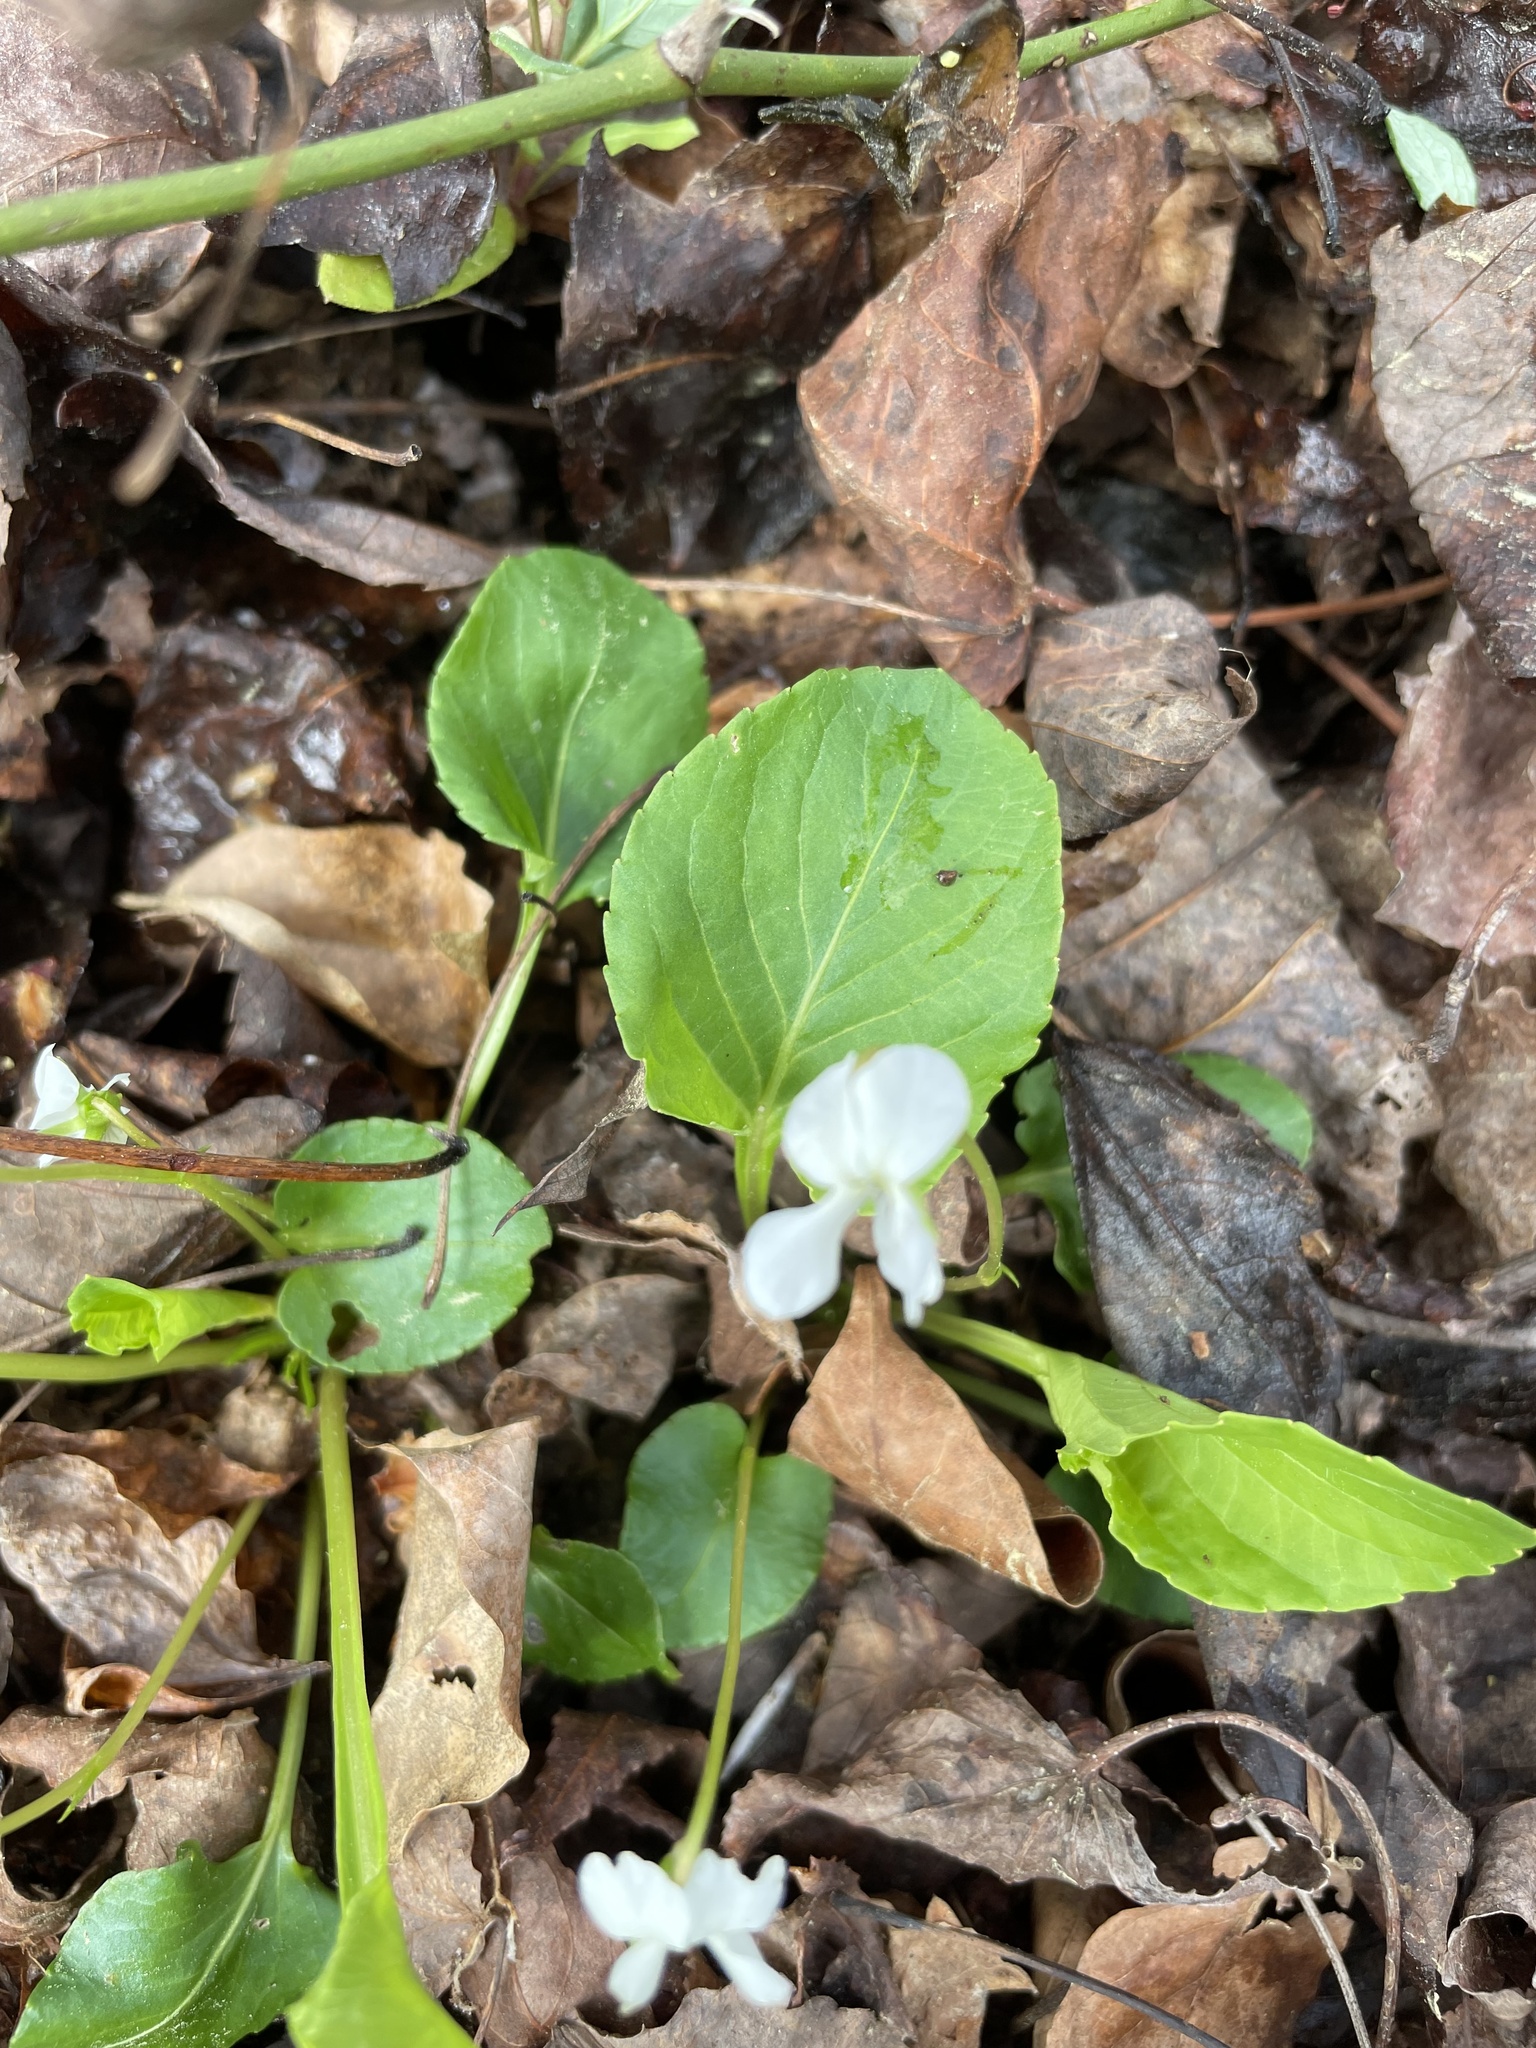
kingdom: Plantae
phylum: Tracheophyta
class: Magnoliopsida
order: Malpighiales
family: Violaceae
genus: Viola
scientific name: Viola primulifolia
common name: Primrose-leaf violet
